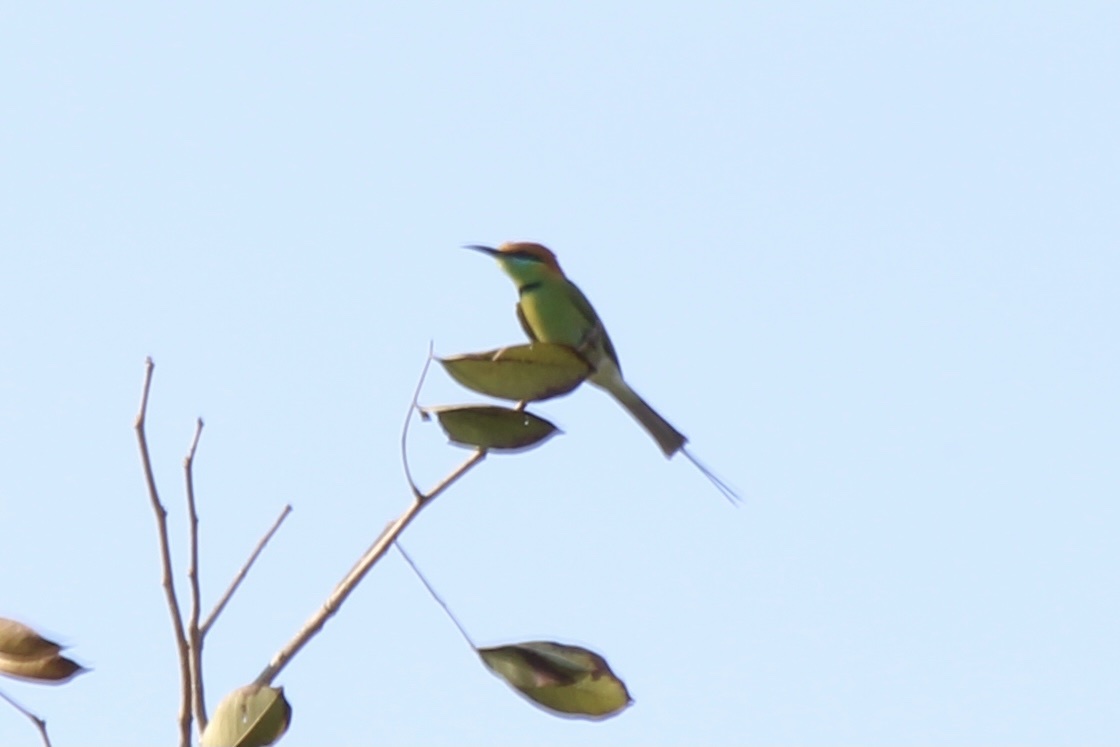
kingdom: Animalia
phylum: Chordata
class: Aves
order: Coraciiformes
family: Meropidae
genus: Merops
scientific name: Merops orientalis
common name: Green bee-eater
